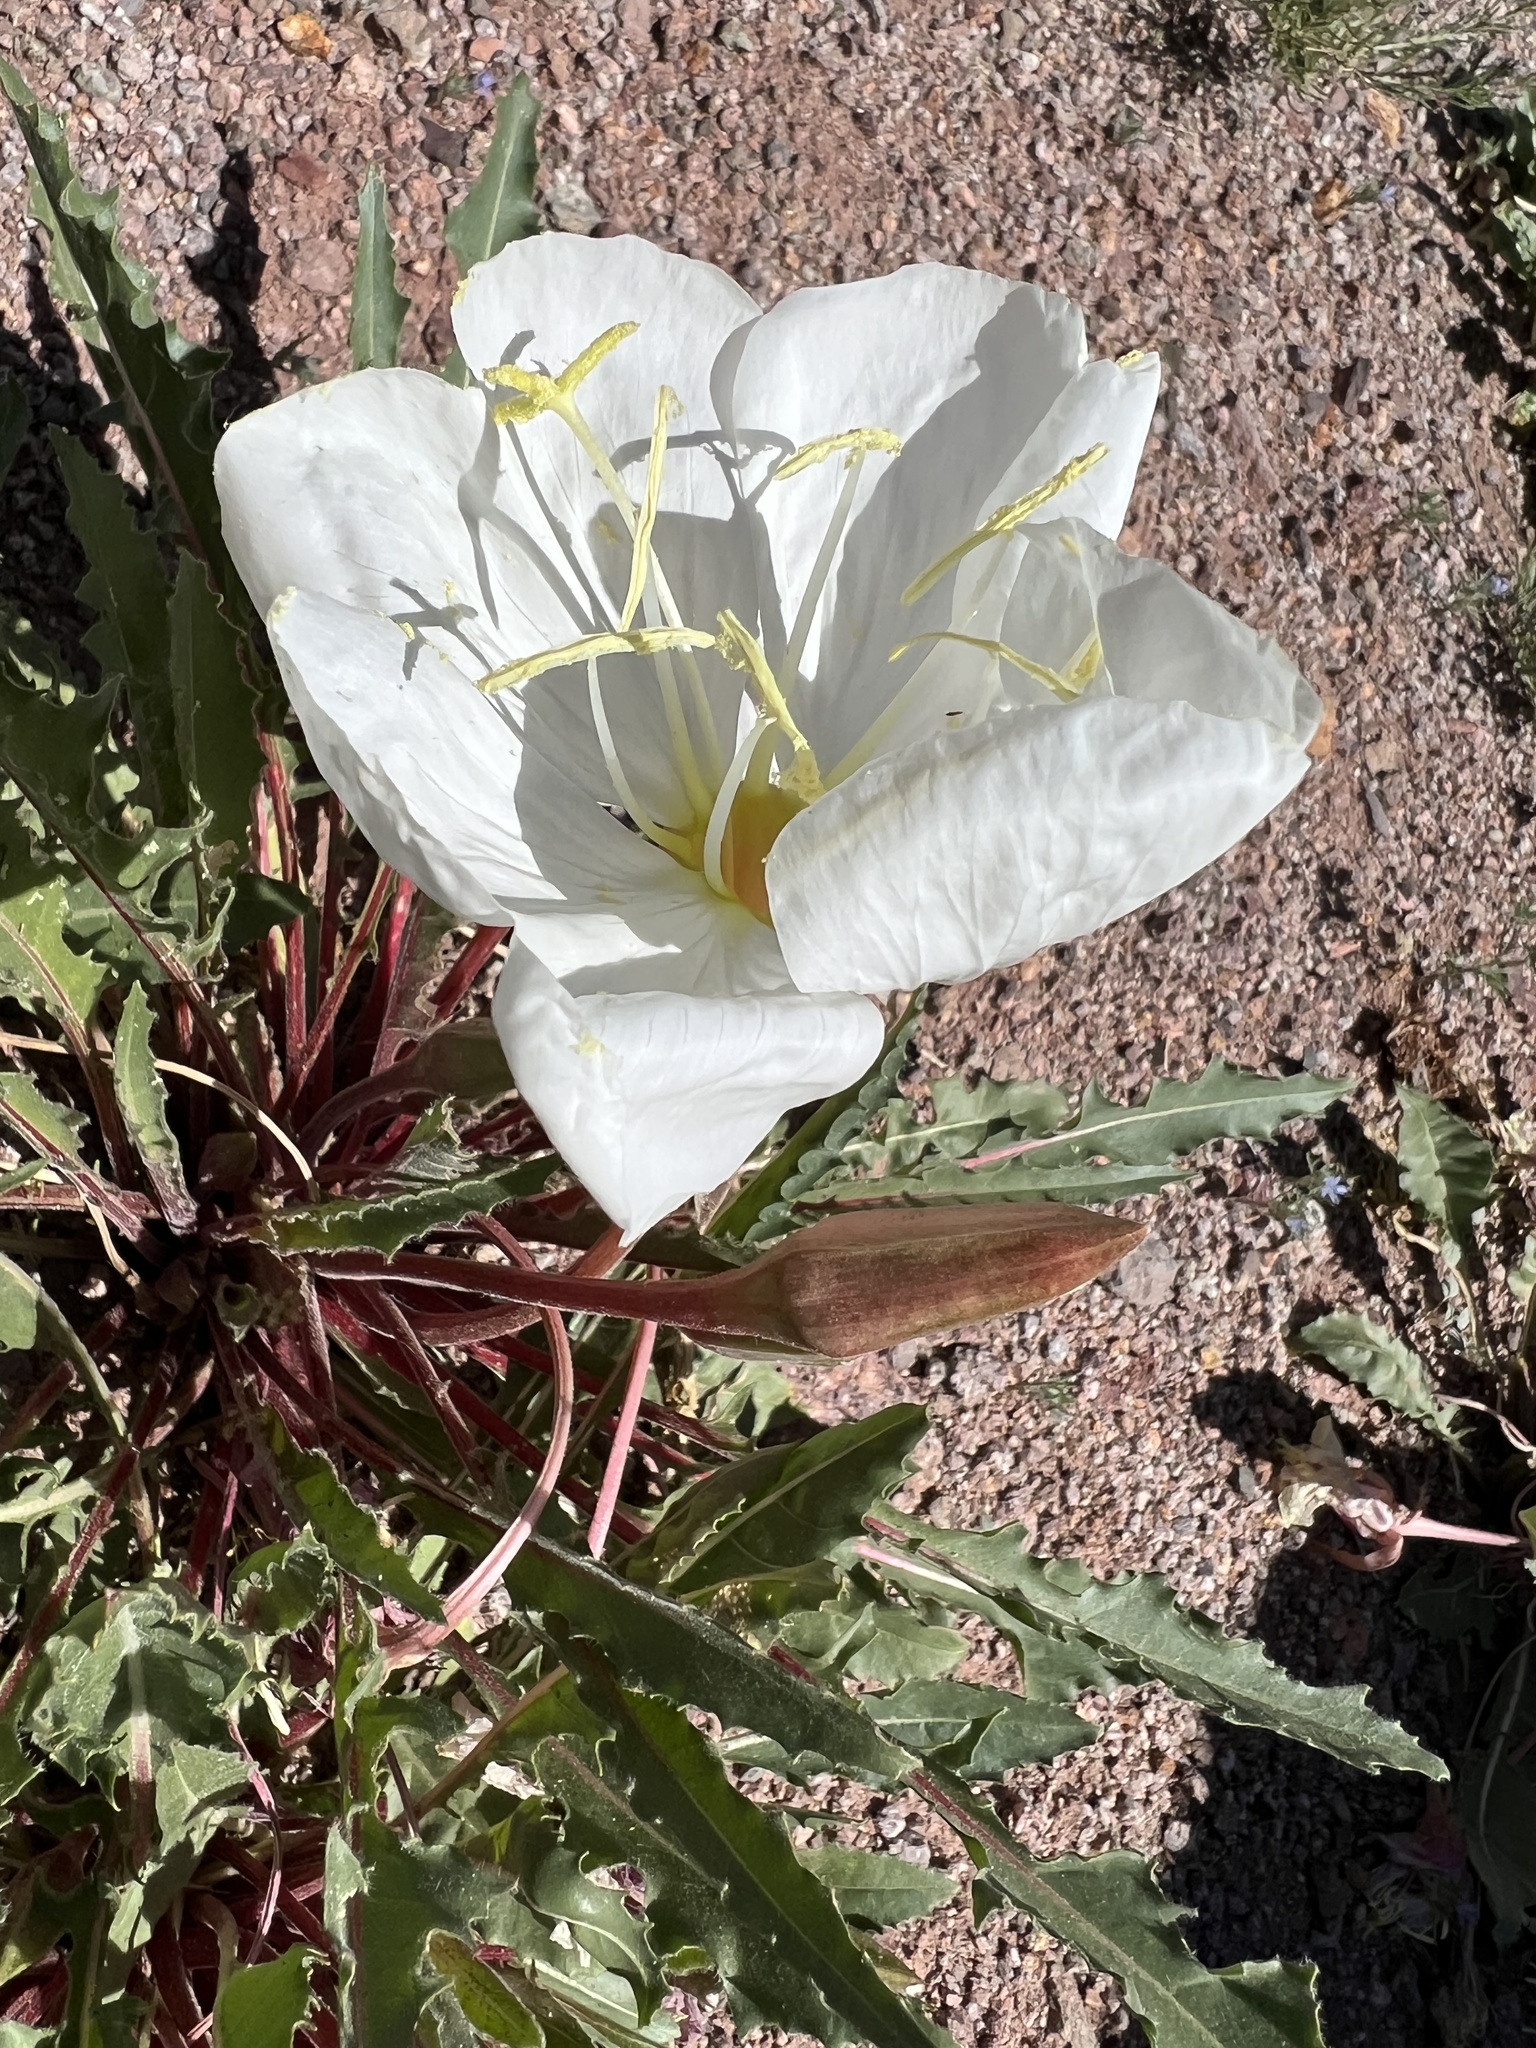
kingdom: Plantae
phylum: Tracheophyta
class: Magnoliopsida
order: Myrtales
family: Onagraceae
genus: Oenothera
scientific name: Oenothera cespitosa
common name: Tufted evening-primrose
